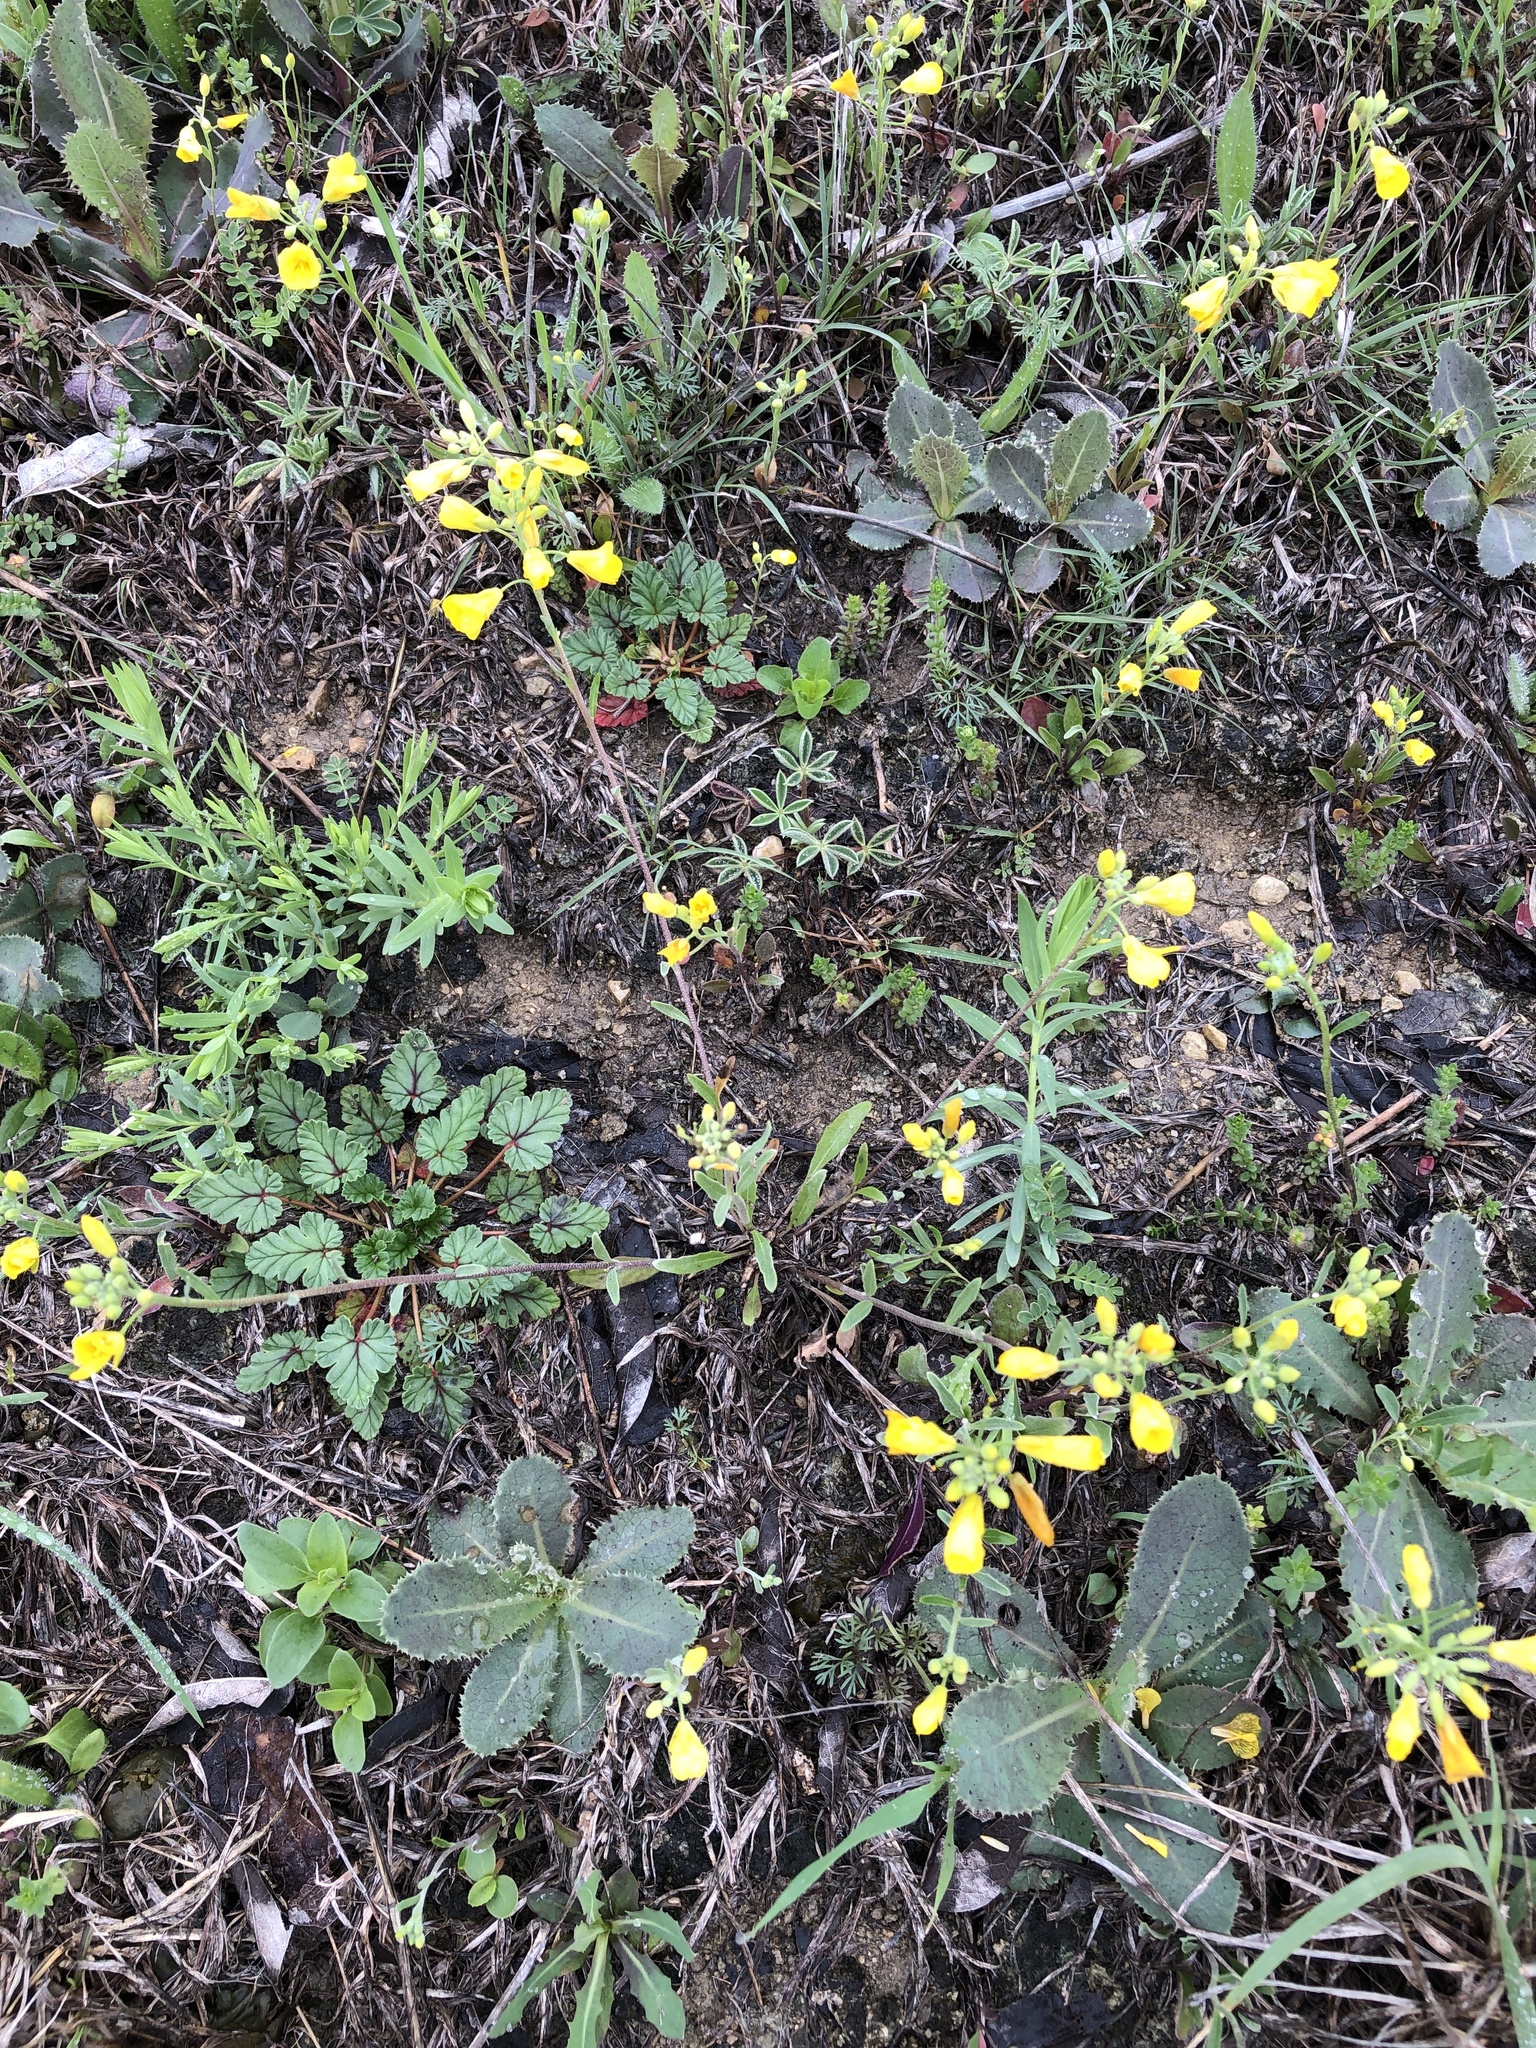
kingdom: Plantae
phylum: Tracheophyta
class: Magnoliopsida
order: Brassicales
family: Brassicaceae
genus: Physaria
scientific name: Physaria gracilis
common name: Spreading bladderpod
